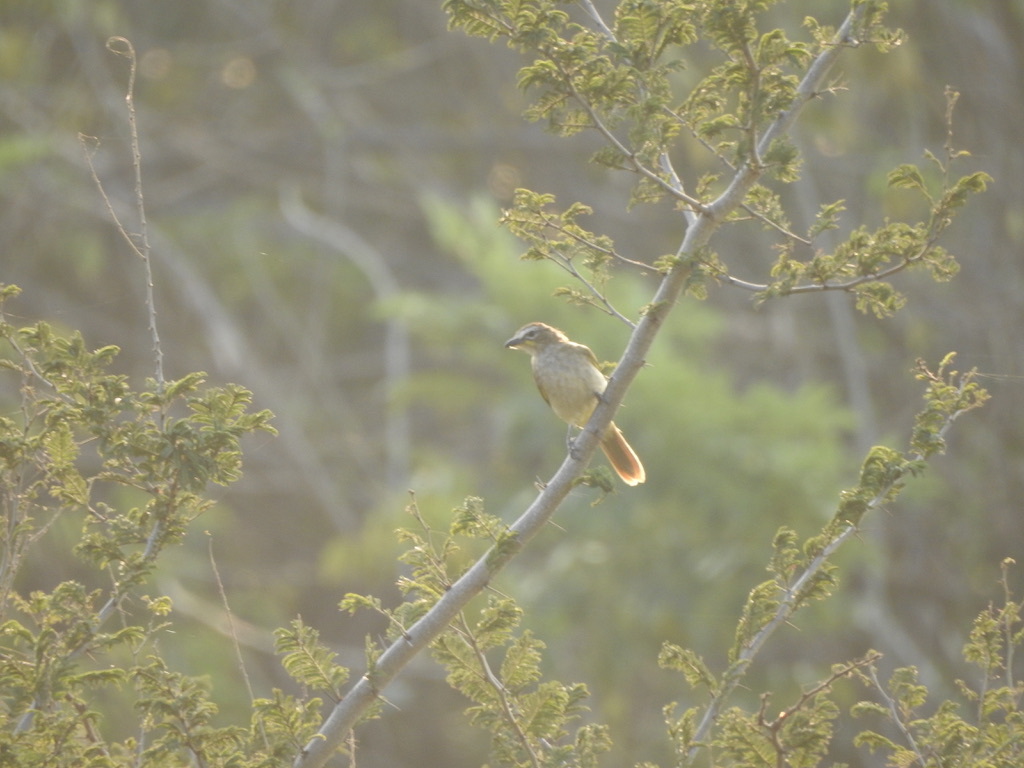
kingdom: Animalia
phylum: Chordata
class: Aves
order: Passeriformes
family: Pycnonotidae
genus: Pycnonotus
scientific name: Pycnonotus luteolus
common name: White-browed bulbul
